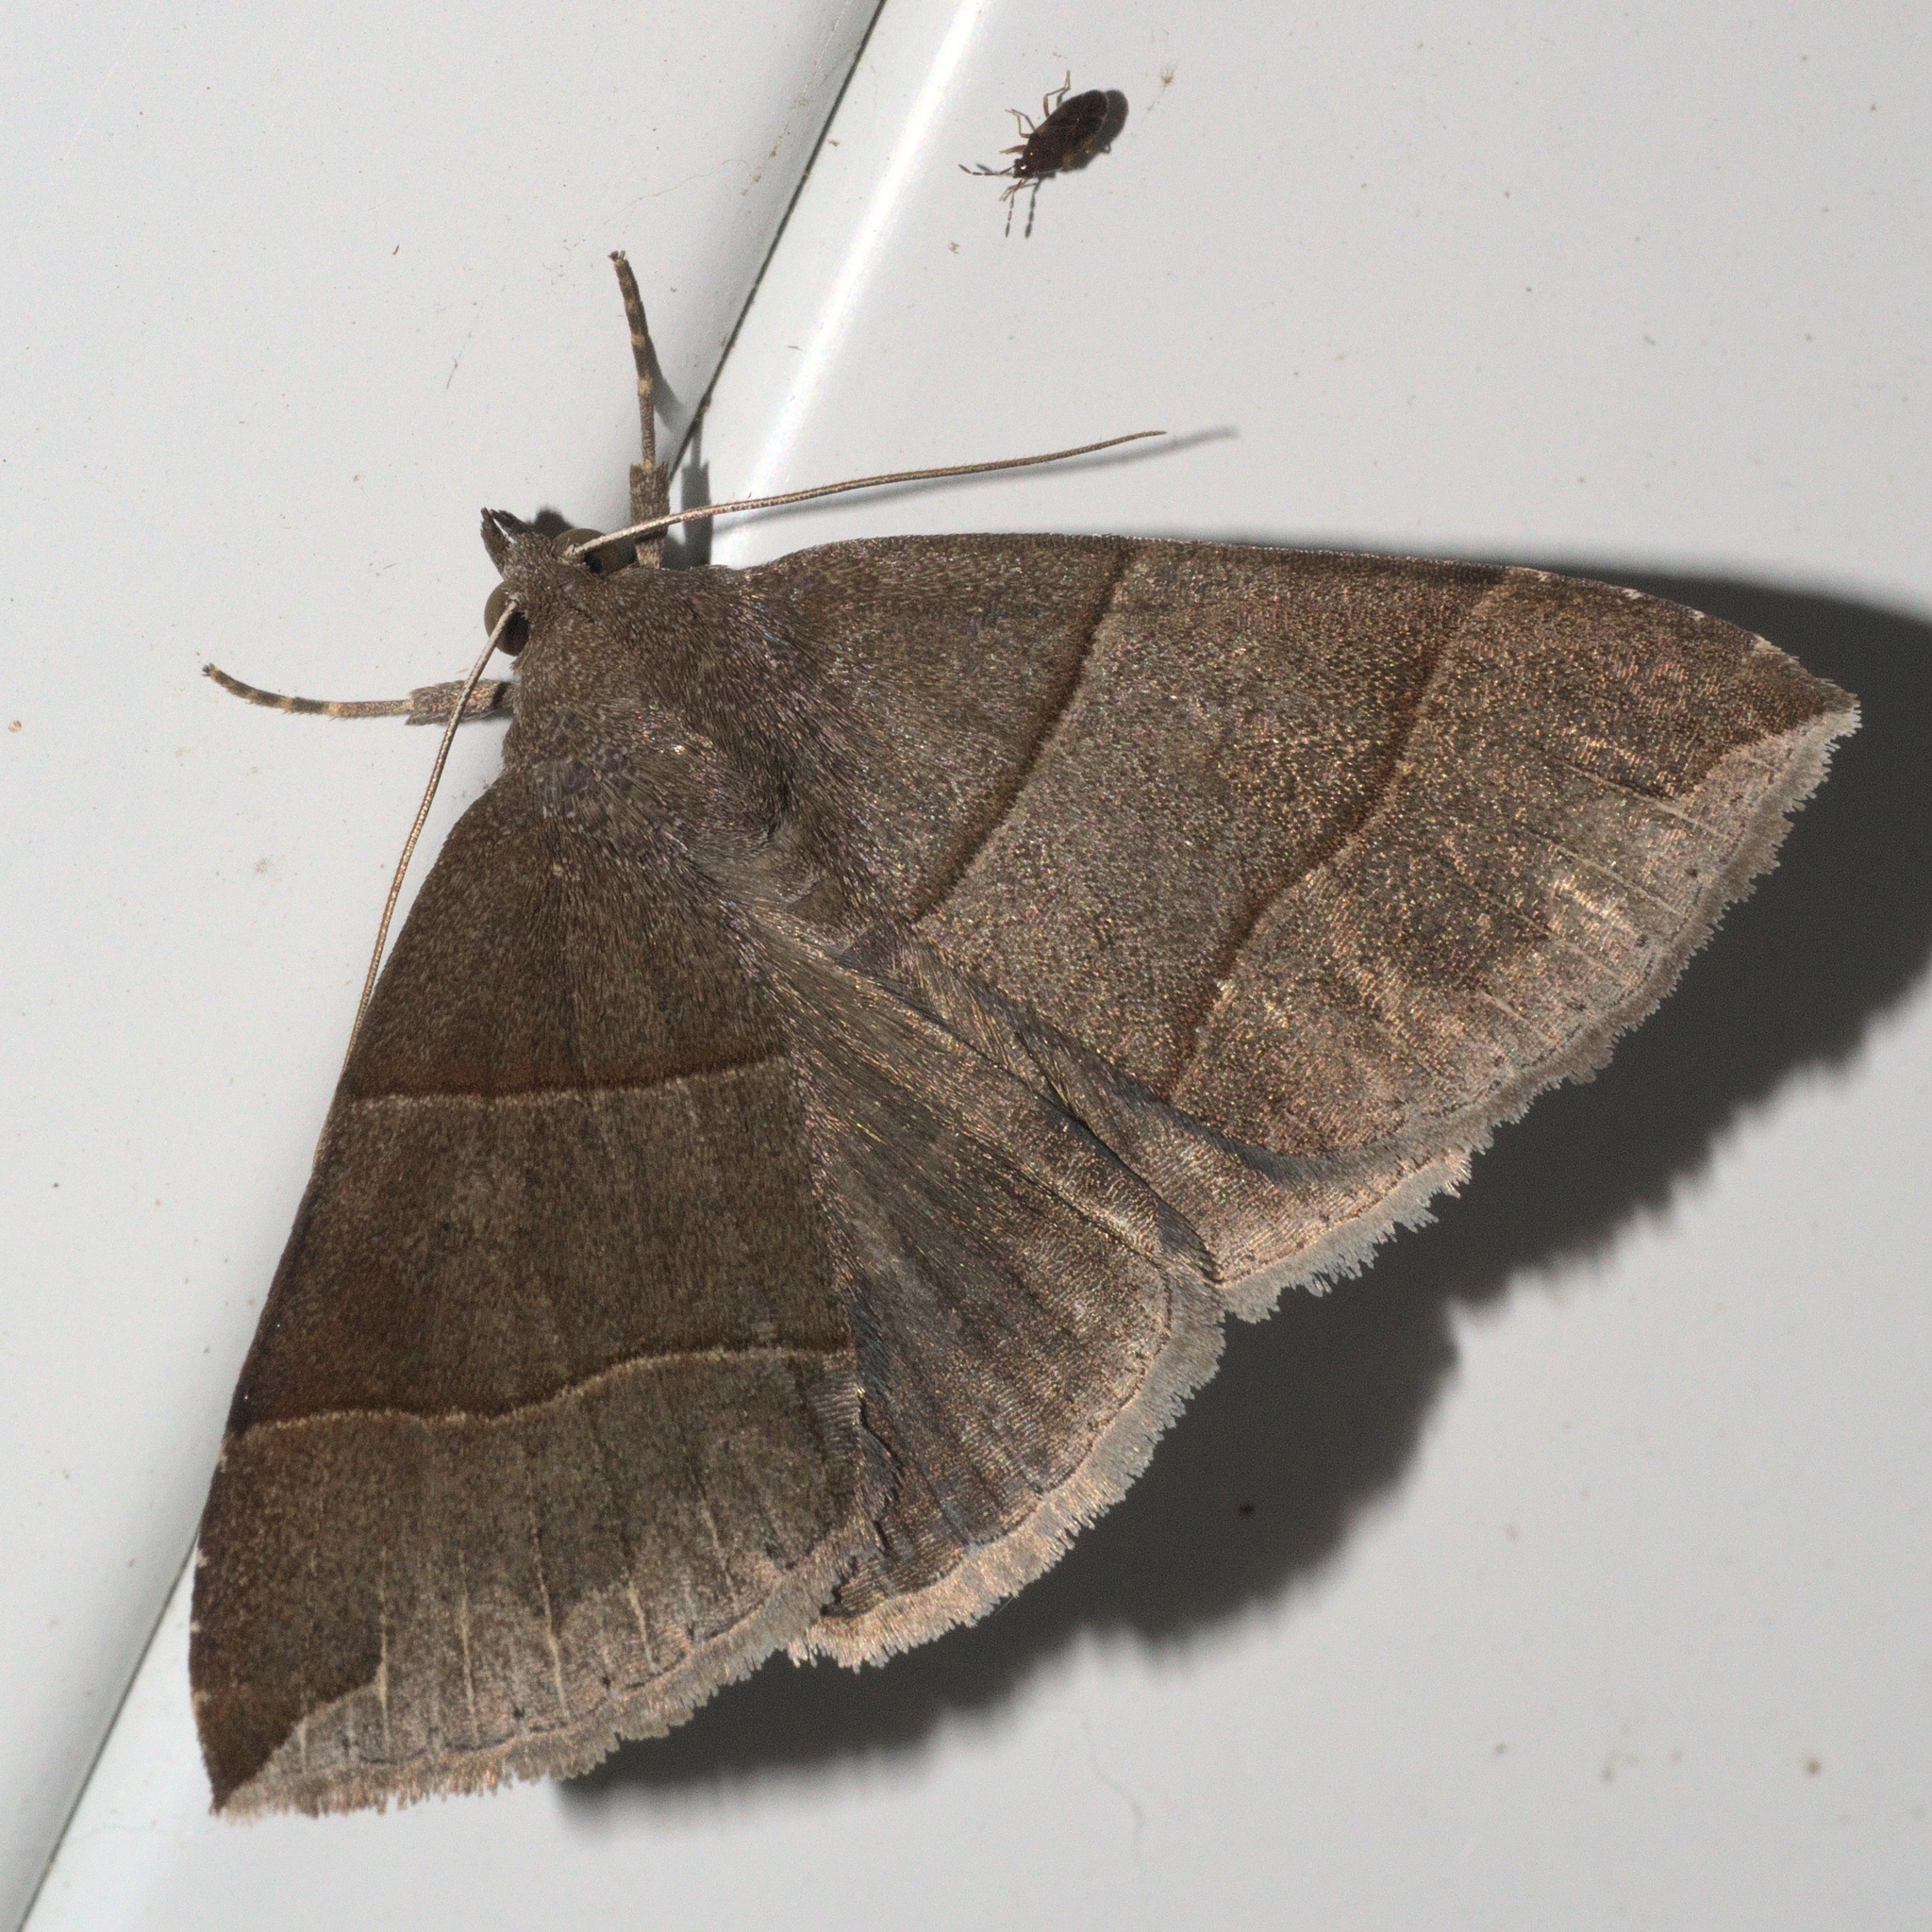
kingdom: Animalia
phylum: Arthropoda
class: Insecta
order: Lepidoptera
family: Erebidae
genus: Parallelia
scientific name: Parallelia bistriaris
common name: Maple looper moth
